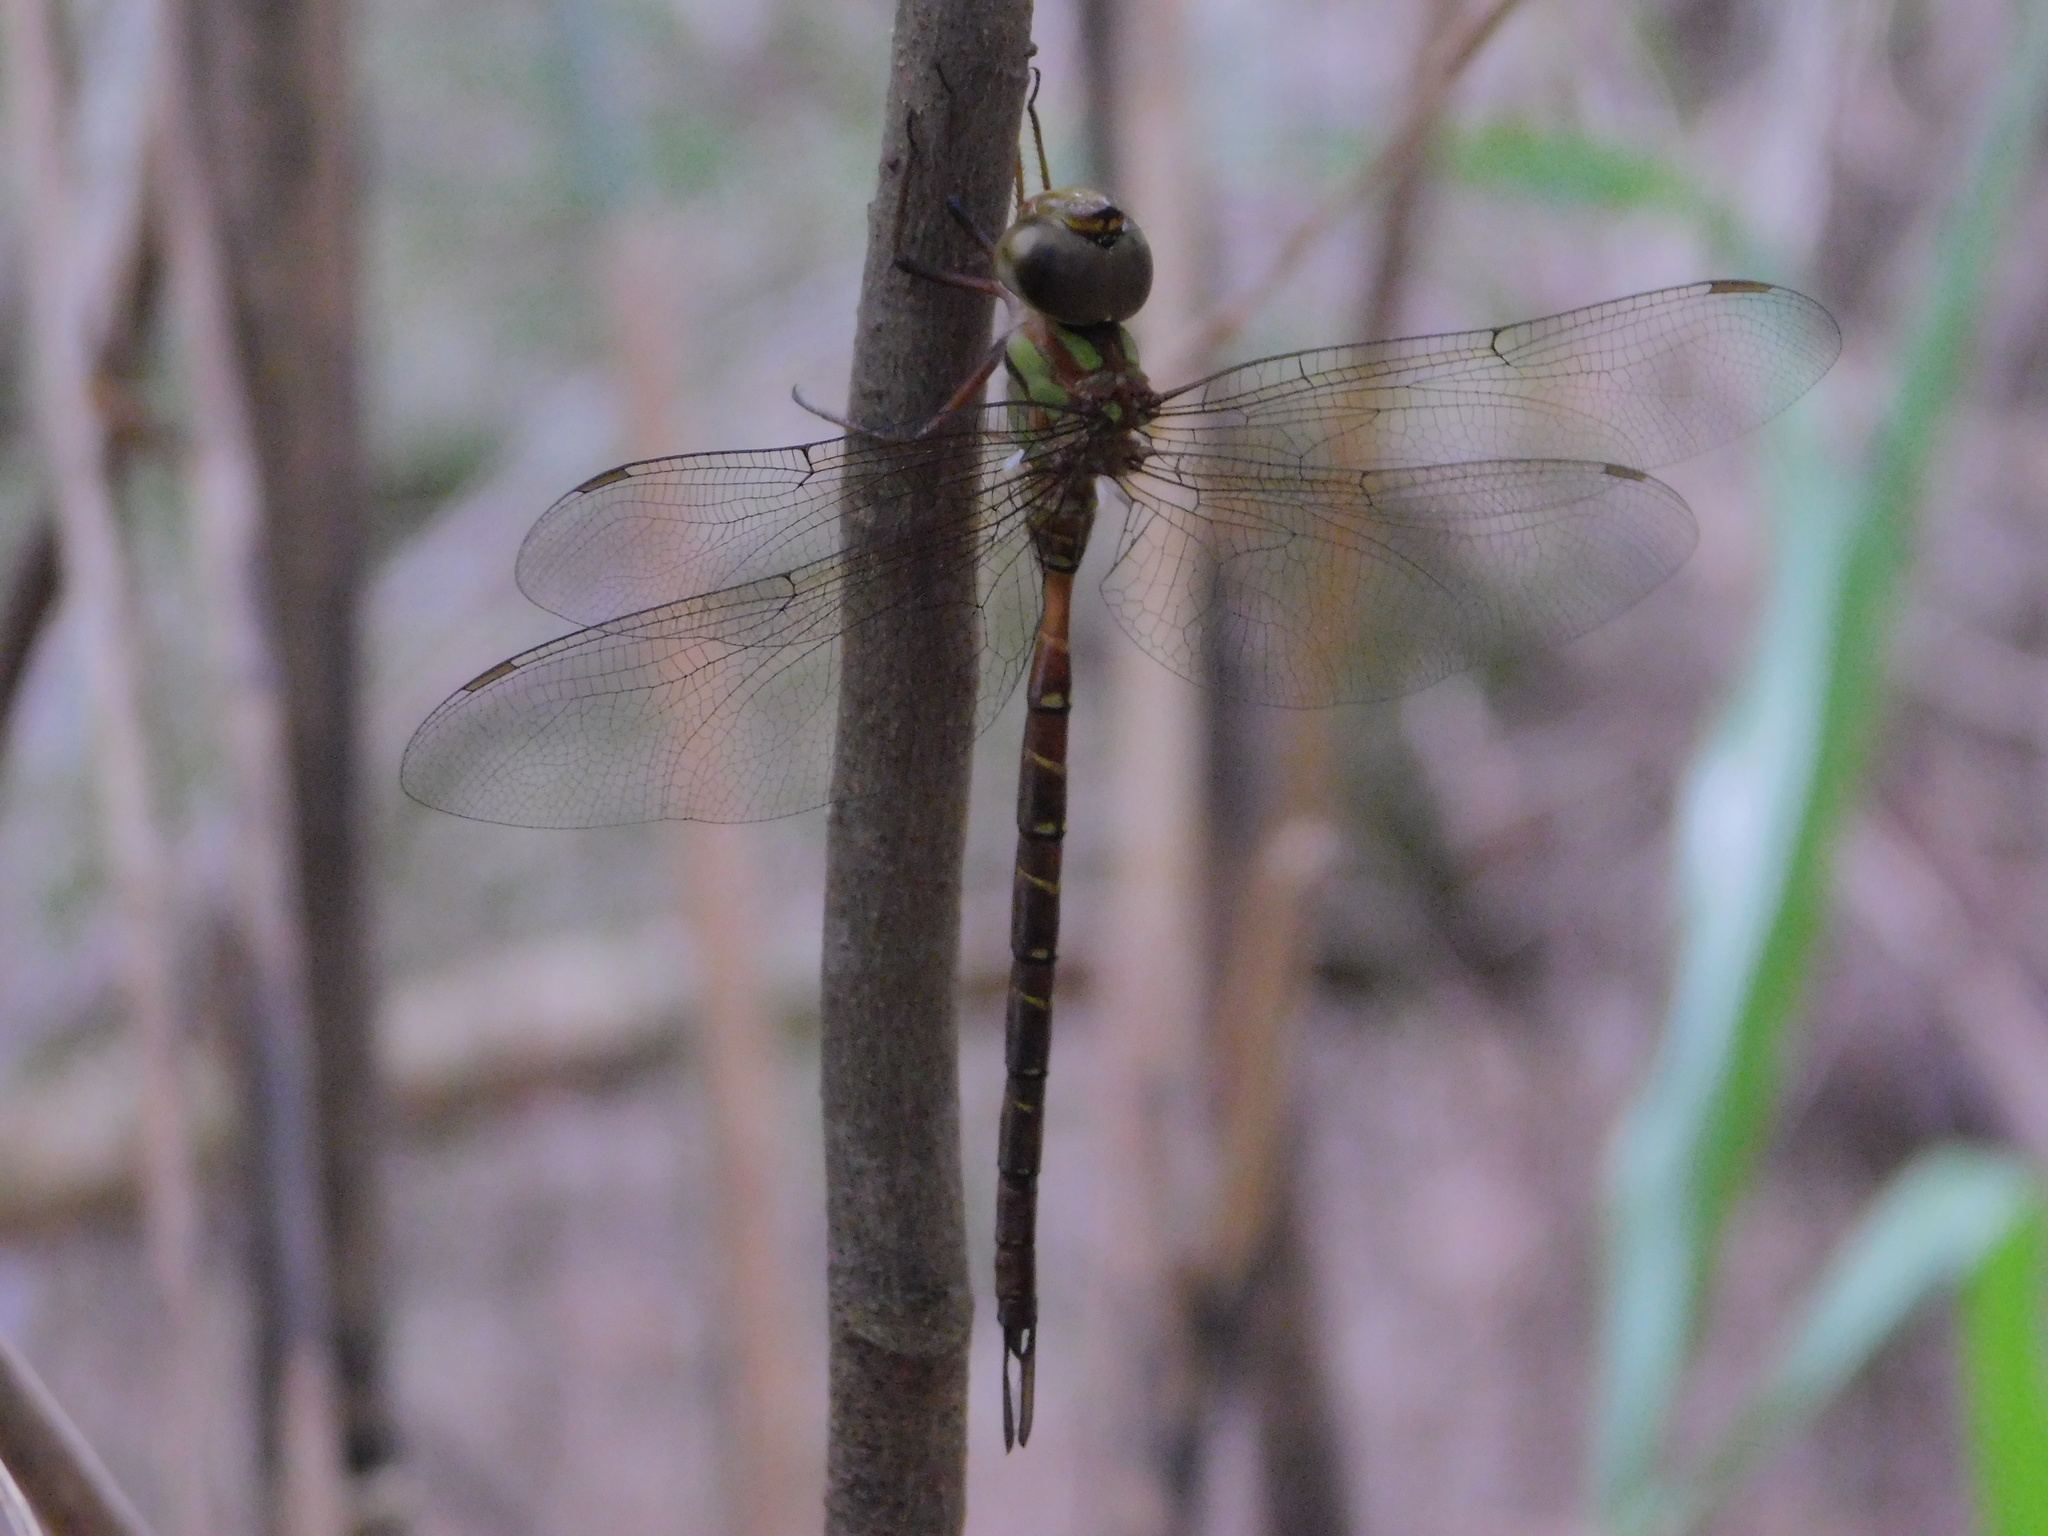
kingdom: Animalia
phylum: Arthropoda
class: Insecta
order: Odonata
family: Aeshnidae
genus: Triacanthagyna
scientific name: Triacanthagyna trifida
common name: Phantom darner
